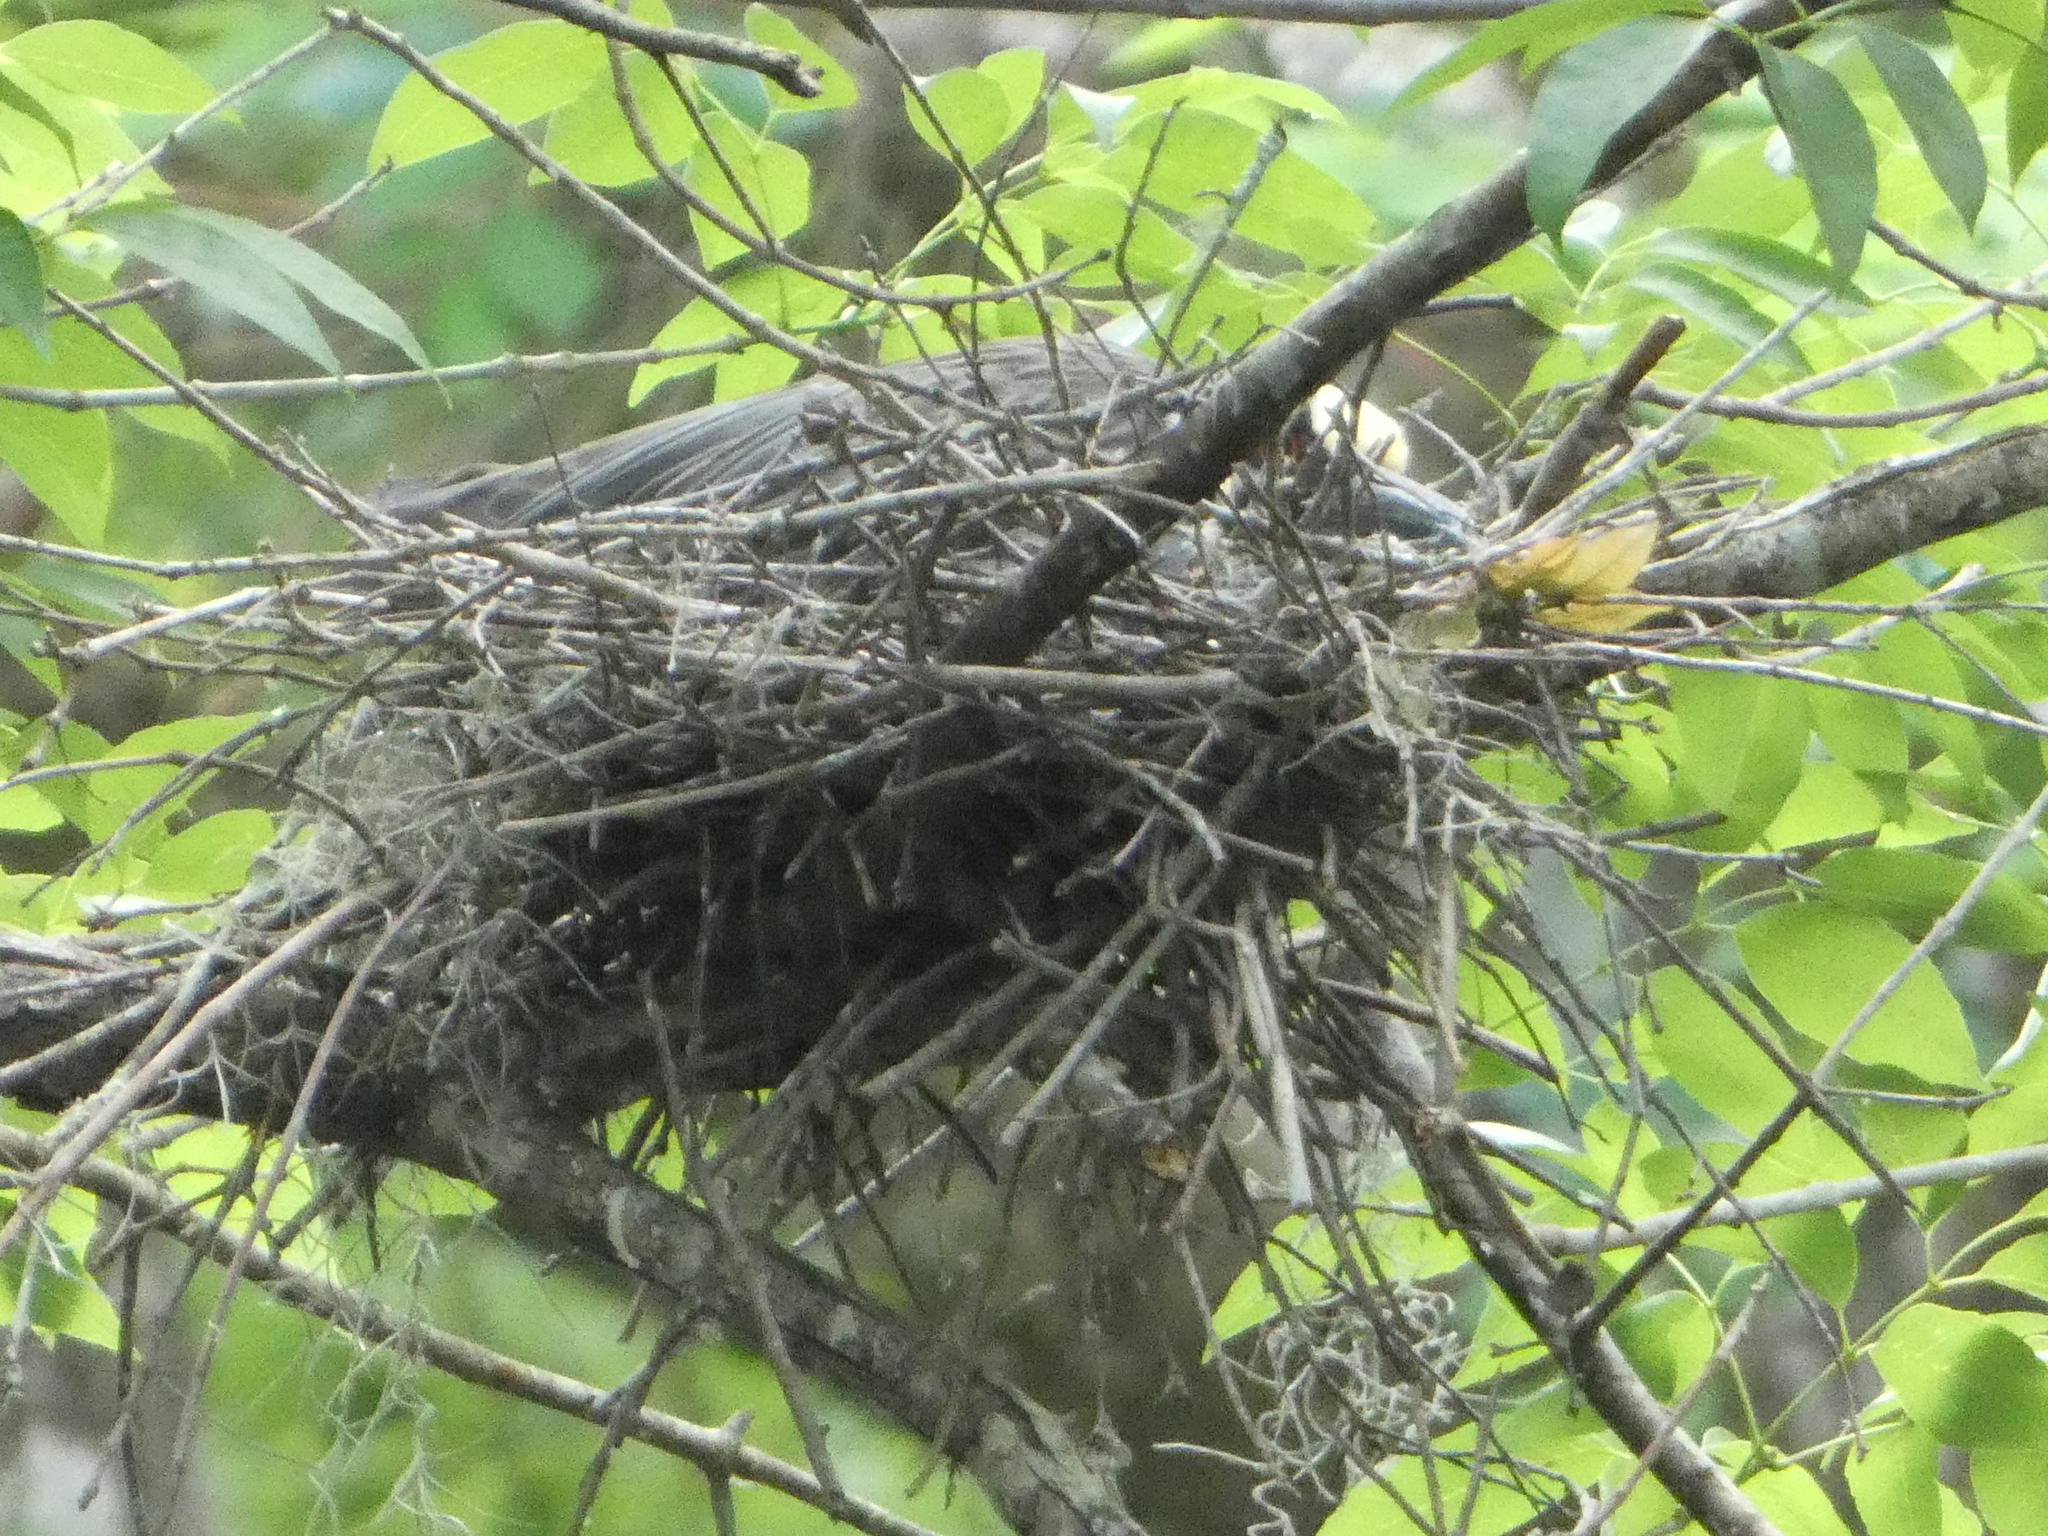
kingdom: Animalia
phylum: Chordata
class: Aves
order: Pelecaniformes
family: Ardeidae
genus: Nyctanassa
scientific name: Nyctanassa violacea
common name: Yellow-crowned night heron
